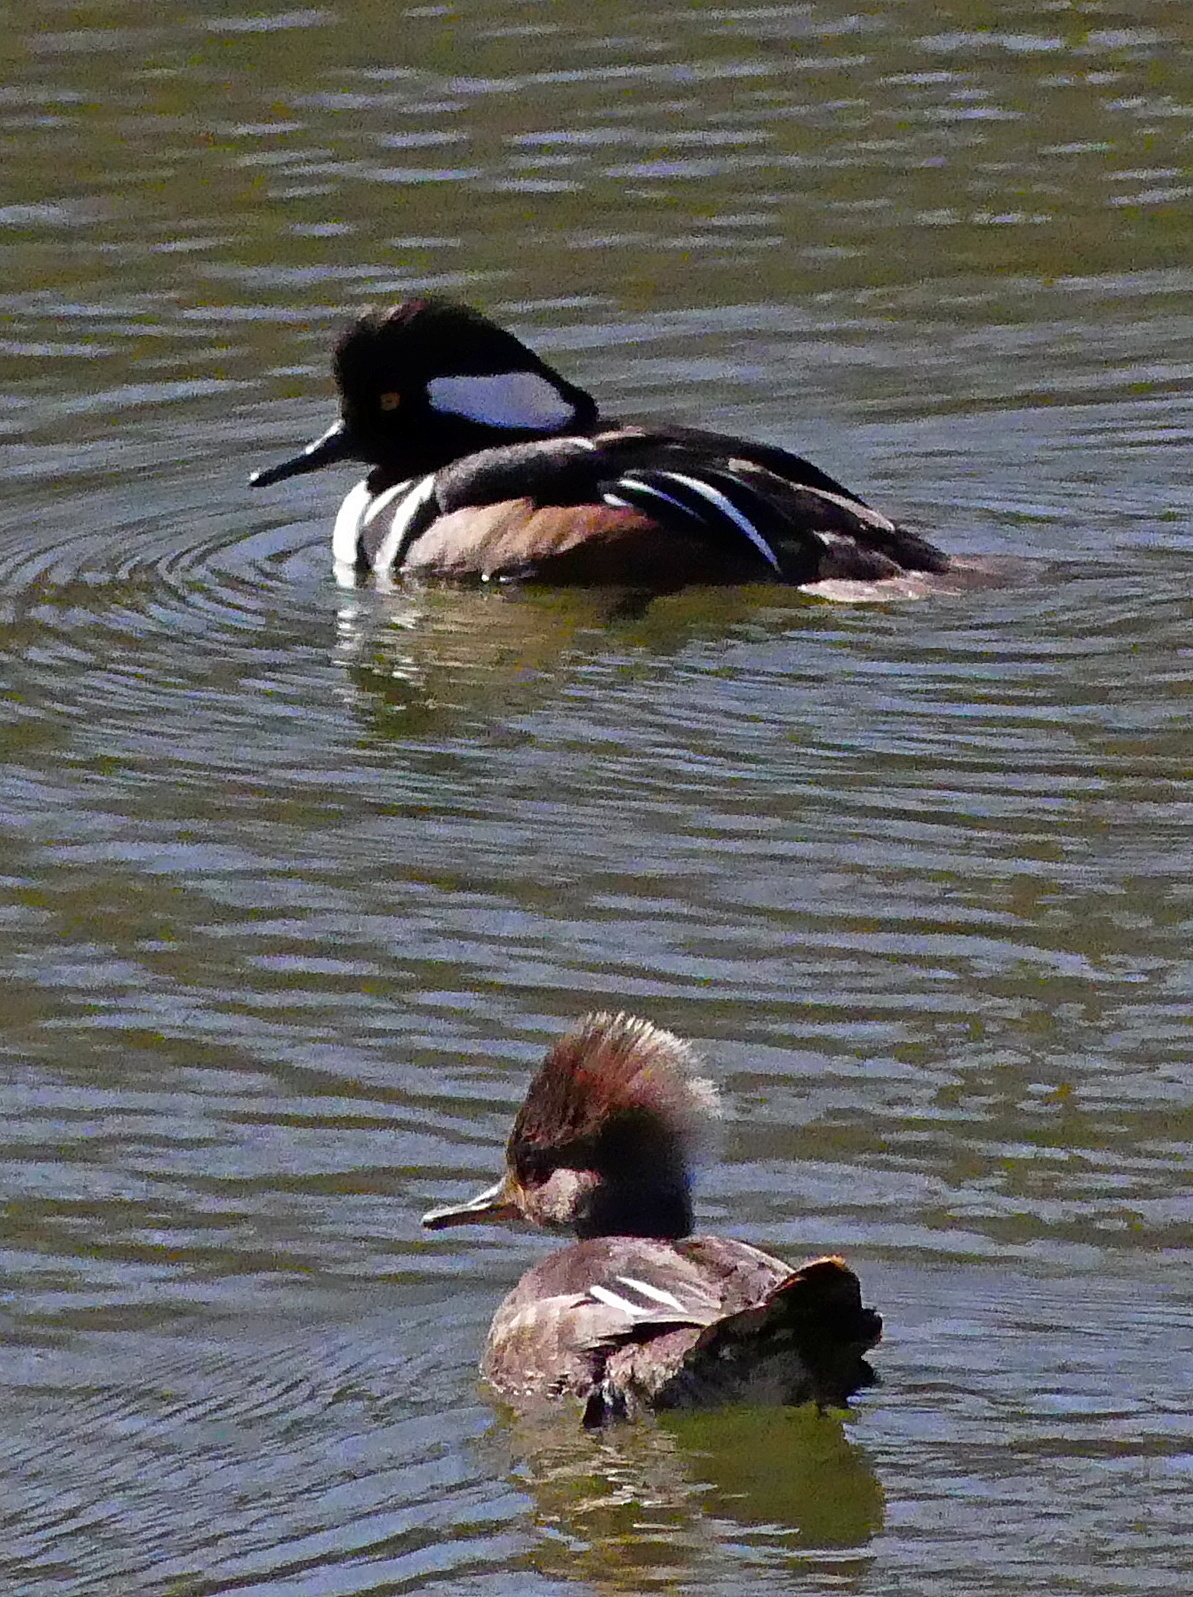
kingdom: Animalia
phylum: Chordata
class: Aves
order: Anseriformes
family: Anatidae
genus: Lophodytes
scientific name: Lophodytes cucullatus
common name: Hooded merganser
